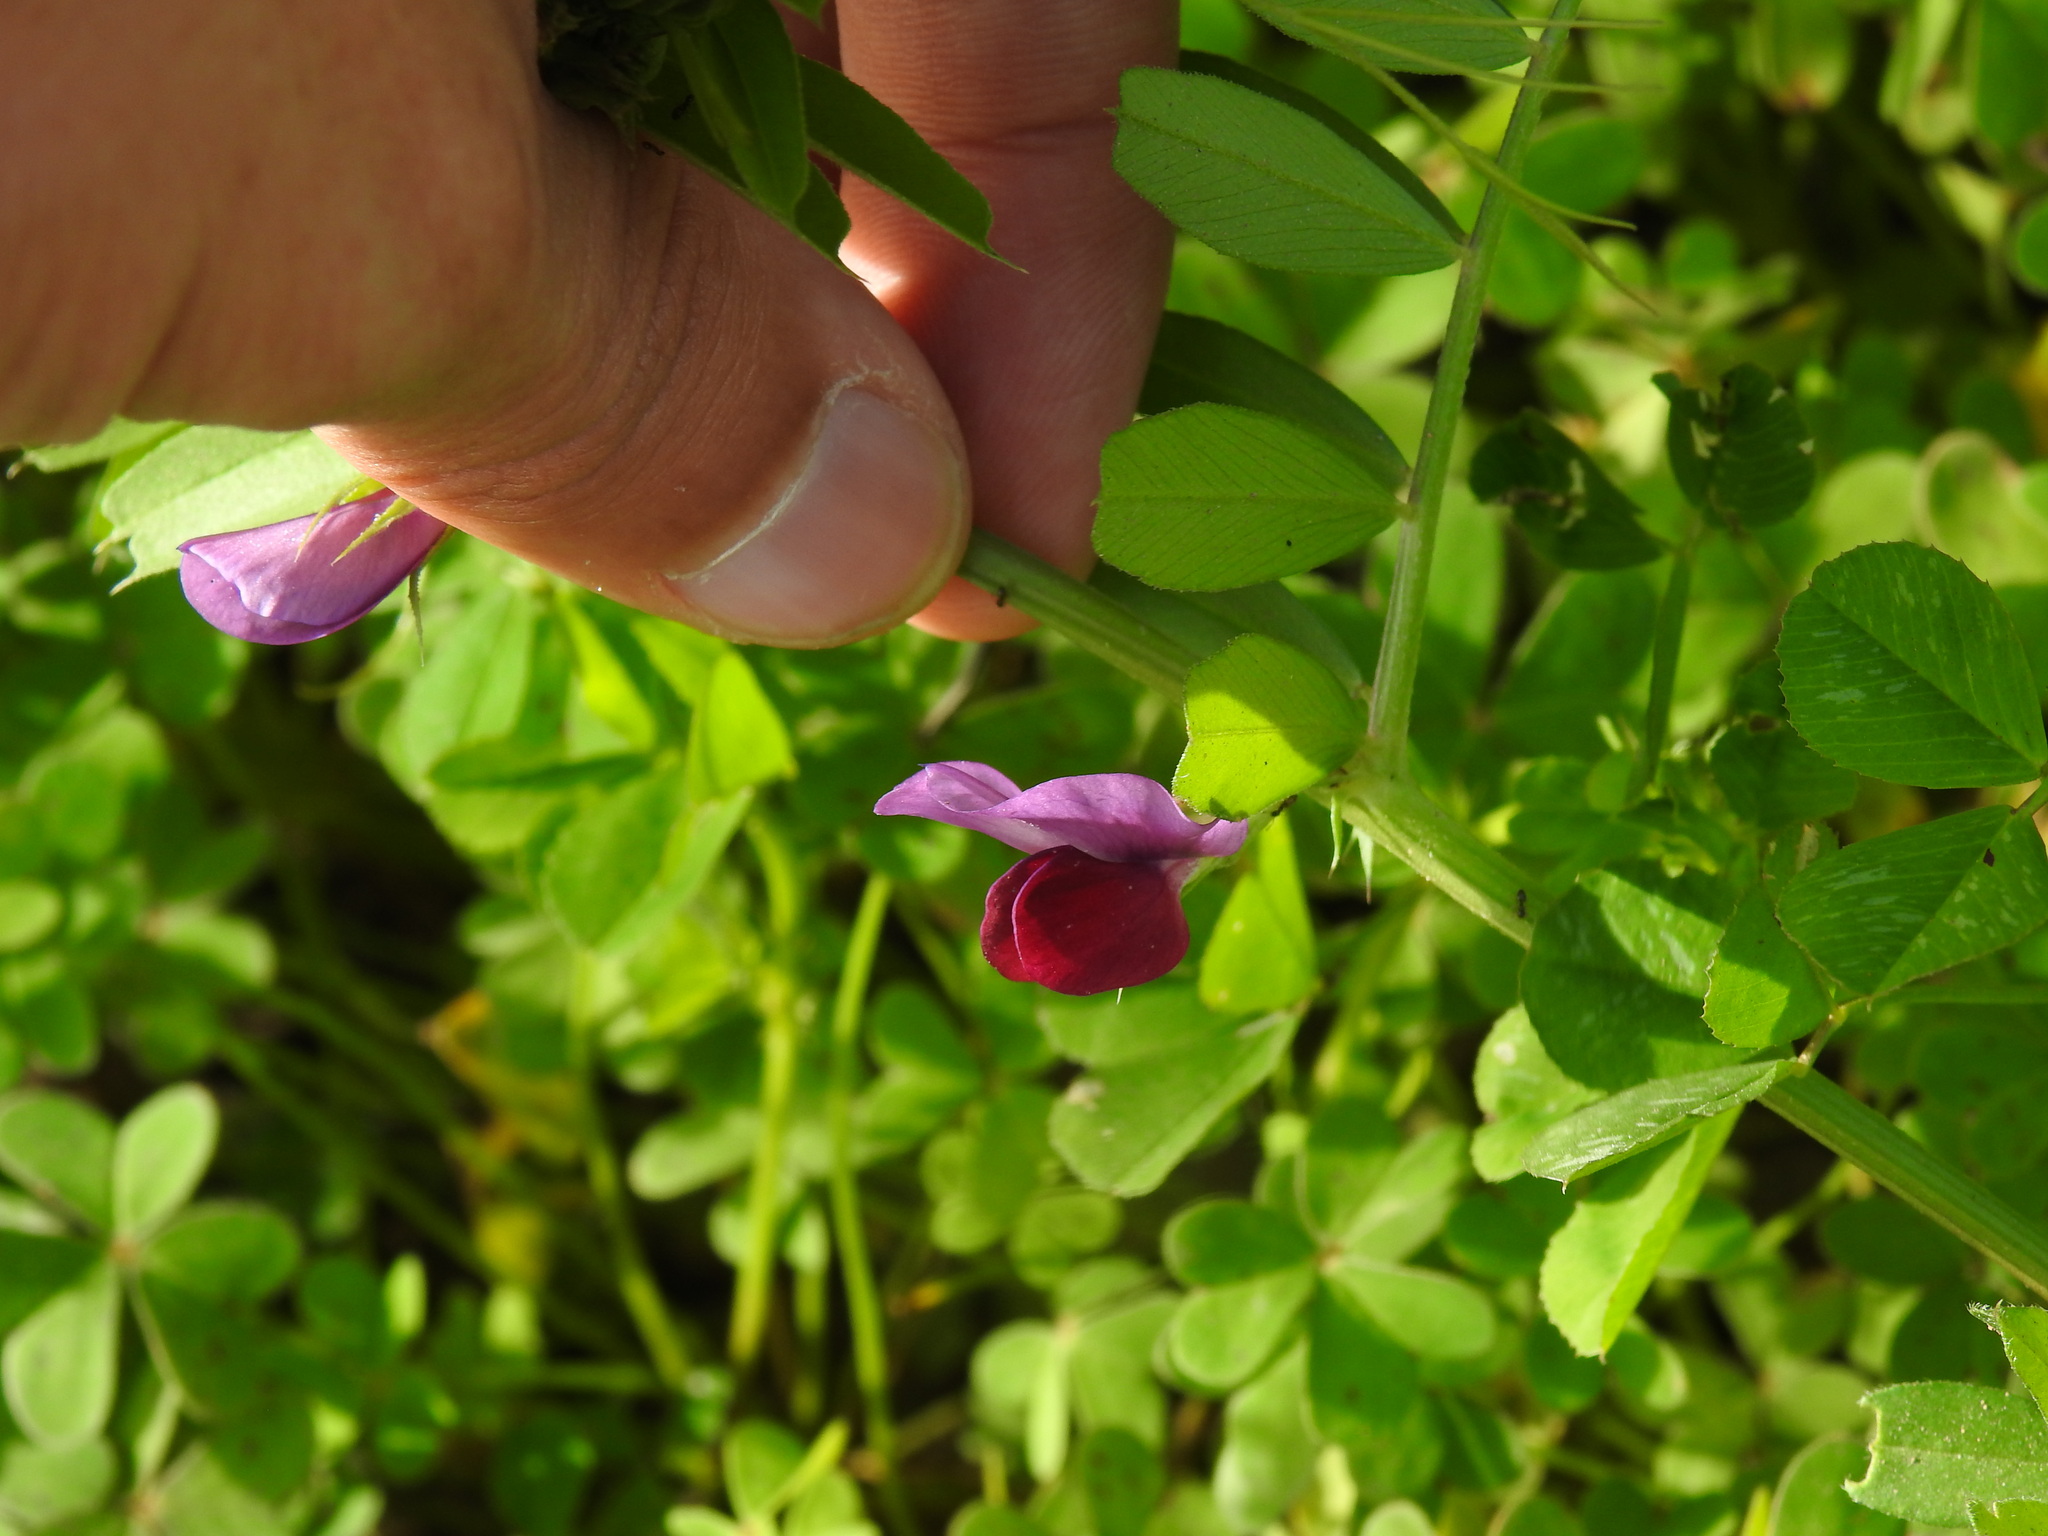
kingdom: Plantae
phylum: Tracheophyta
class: Magnoliopsida
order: Fabales
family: Fabaceae
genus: Vicia
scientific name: Vicia sativa
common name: Garden vetch
